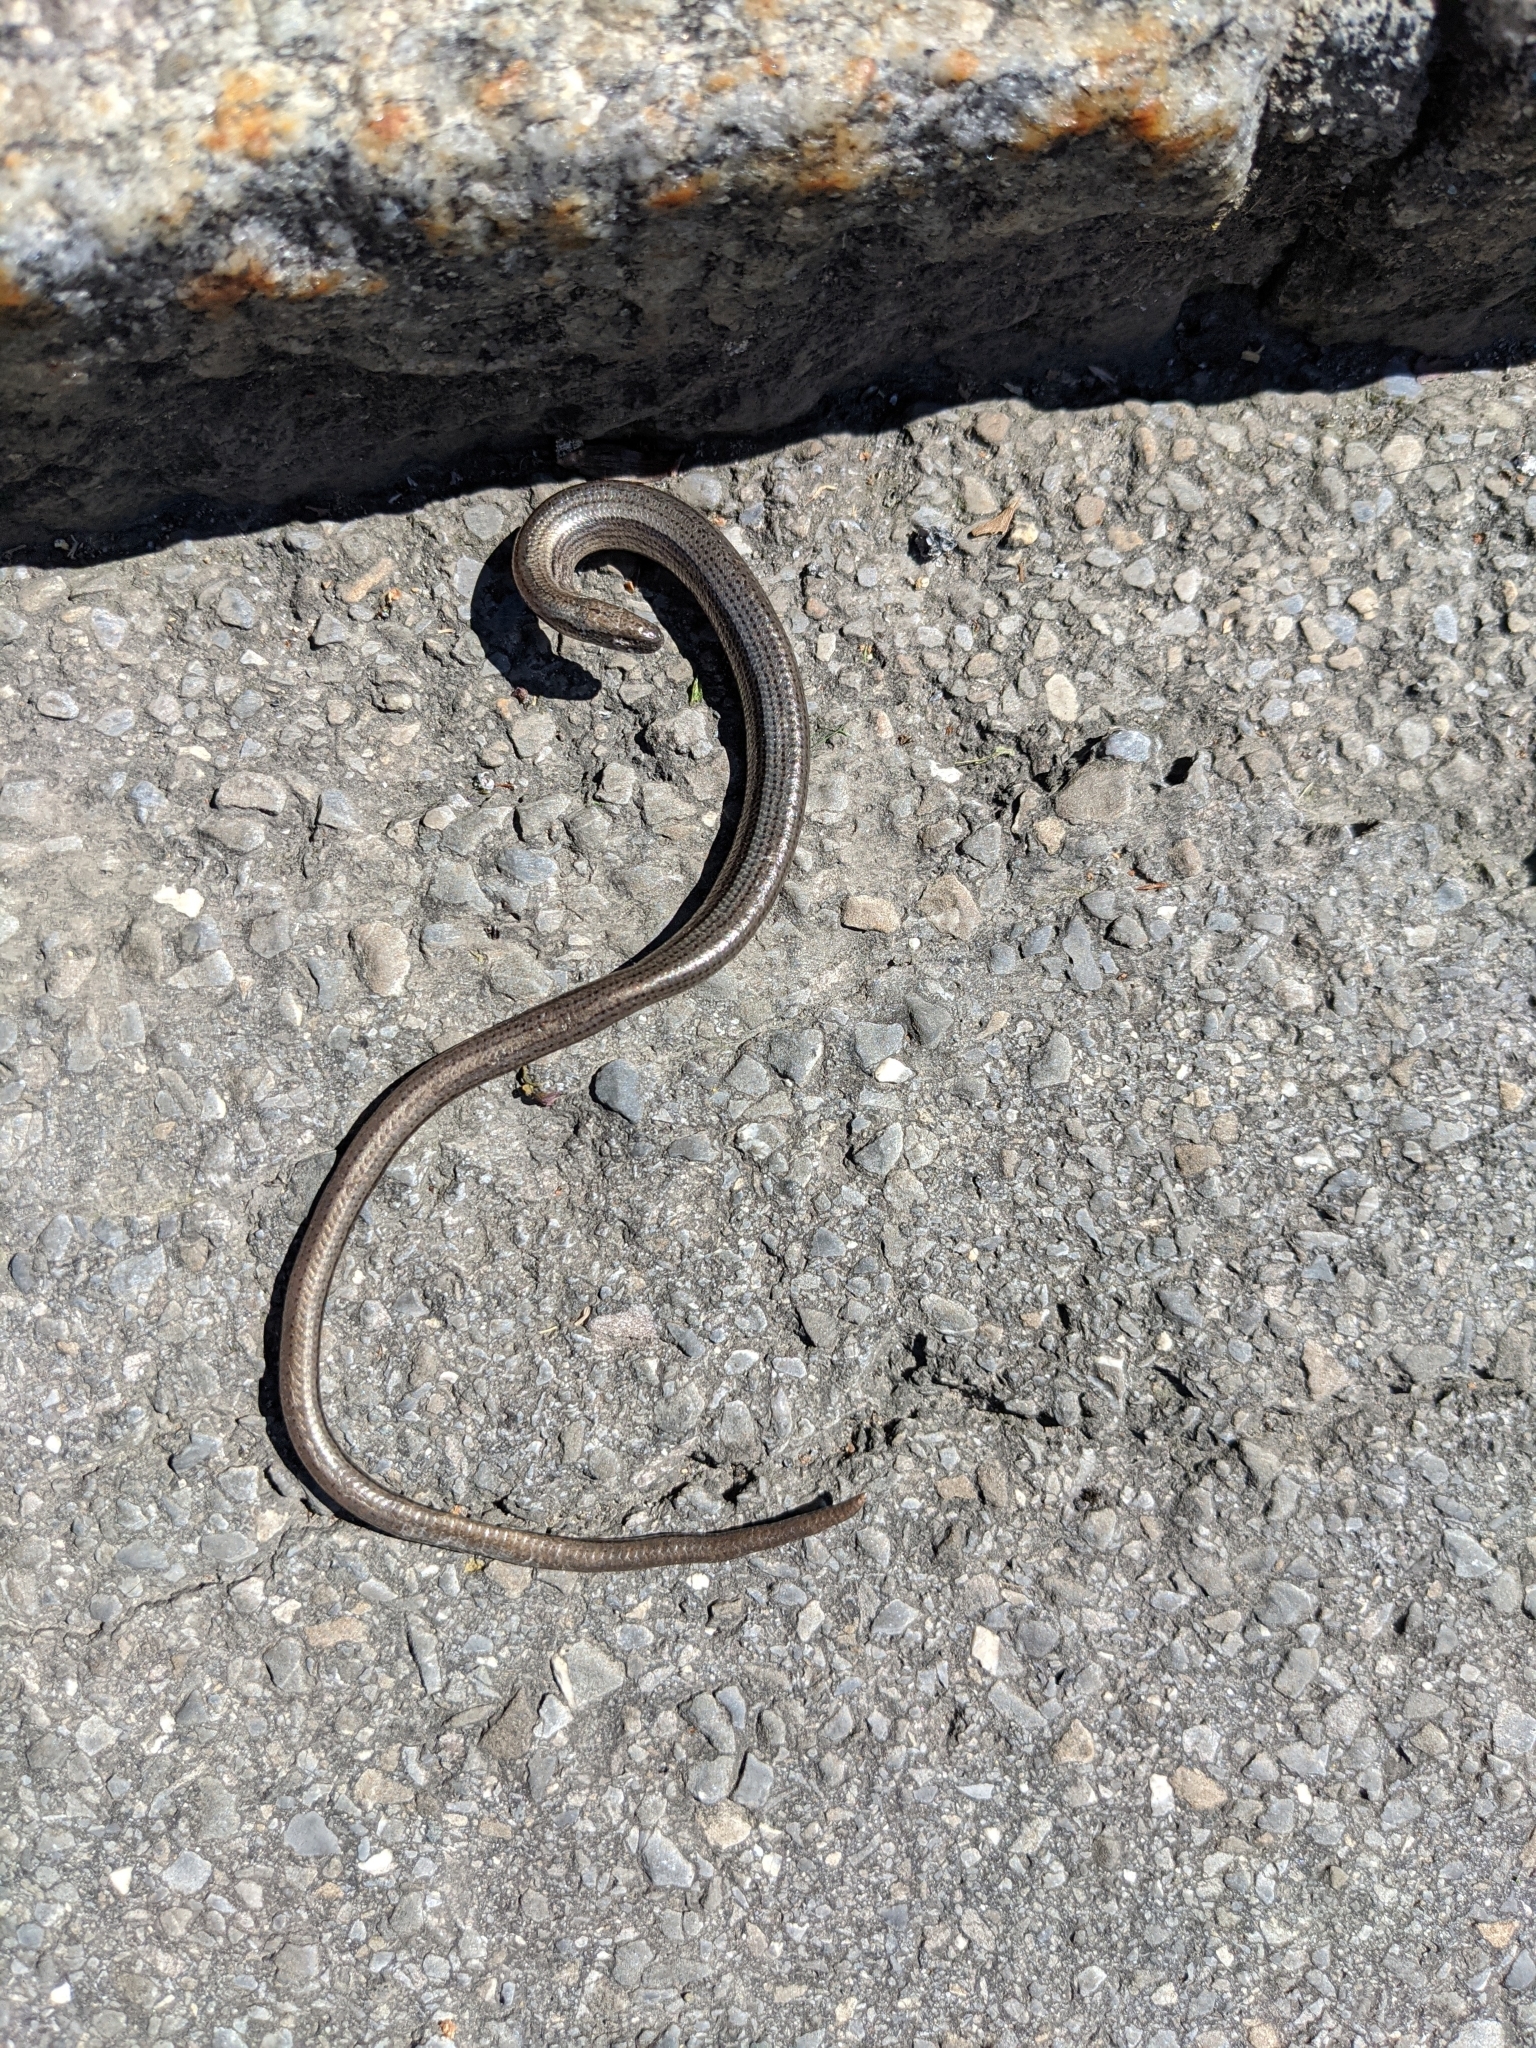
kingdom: Animalia
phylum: Chordata
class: Squamata
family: Anguidae
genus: Anguis
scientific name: Anguis fragilis
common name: Slow worm
